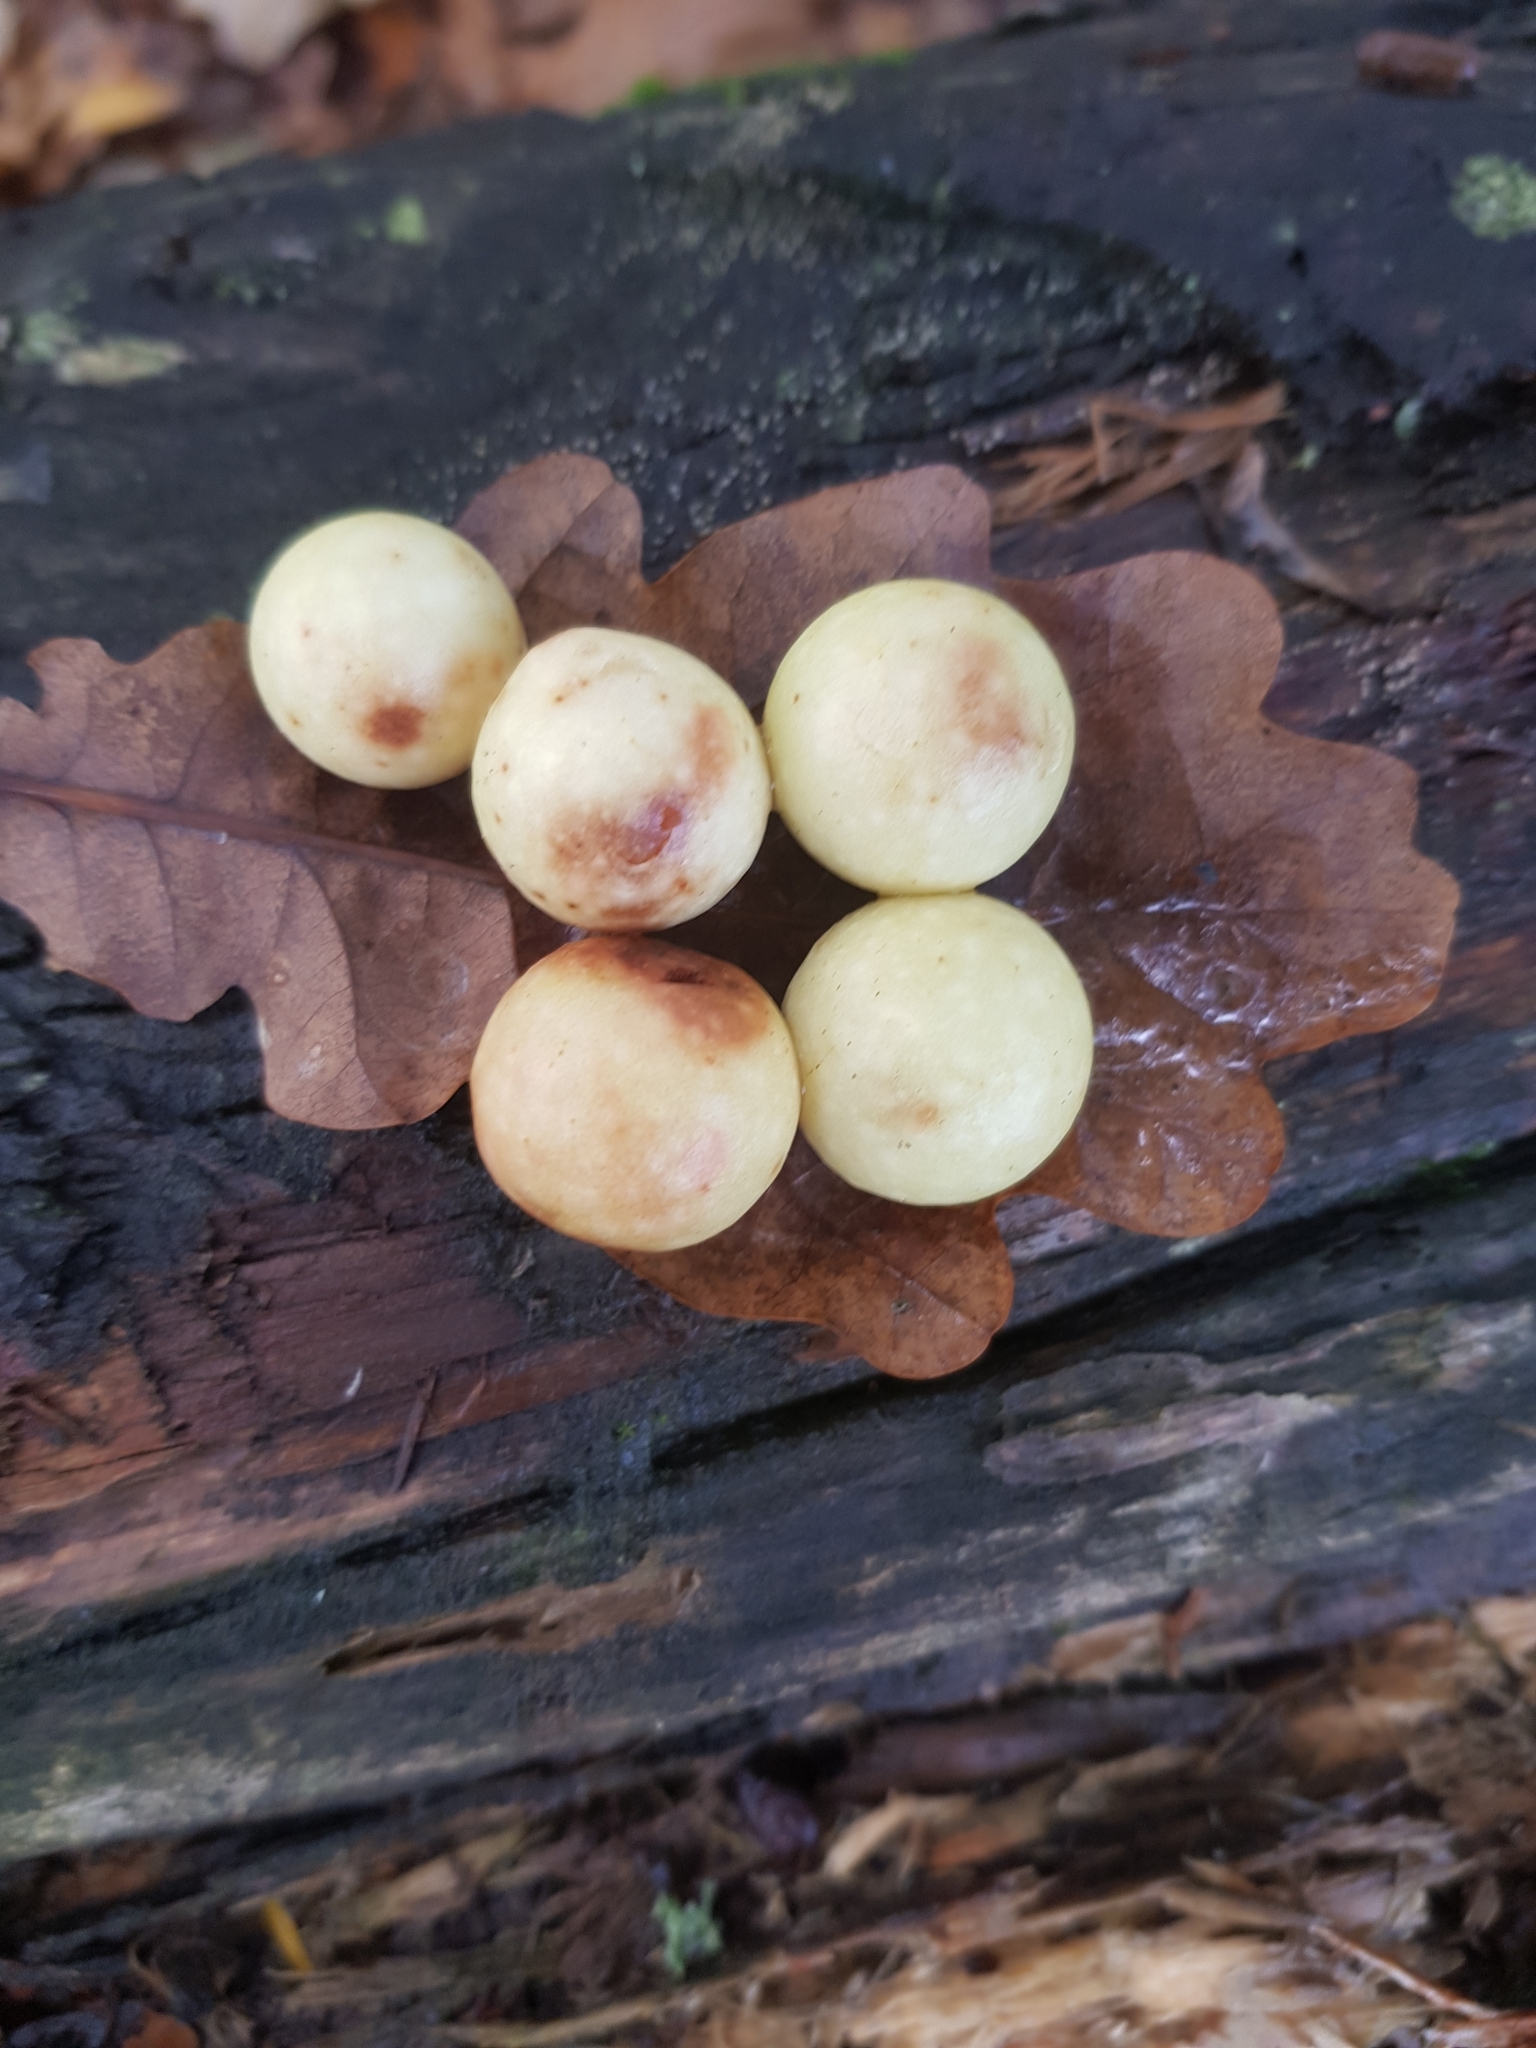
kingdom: Animalia
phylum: Arthropoda
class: Insecta
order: Hymenoptera
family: Cynipidae
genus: Cynips
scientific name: Cynips quercusfolii
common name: Cherry gall
